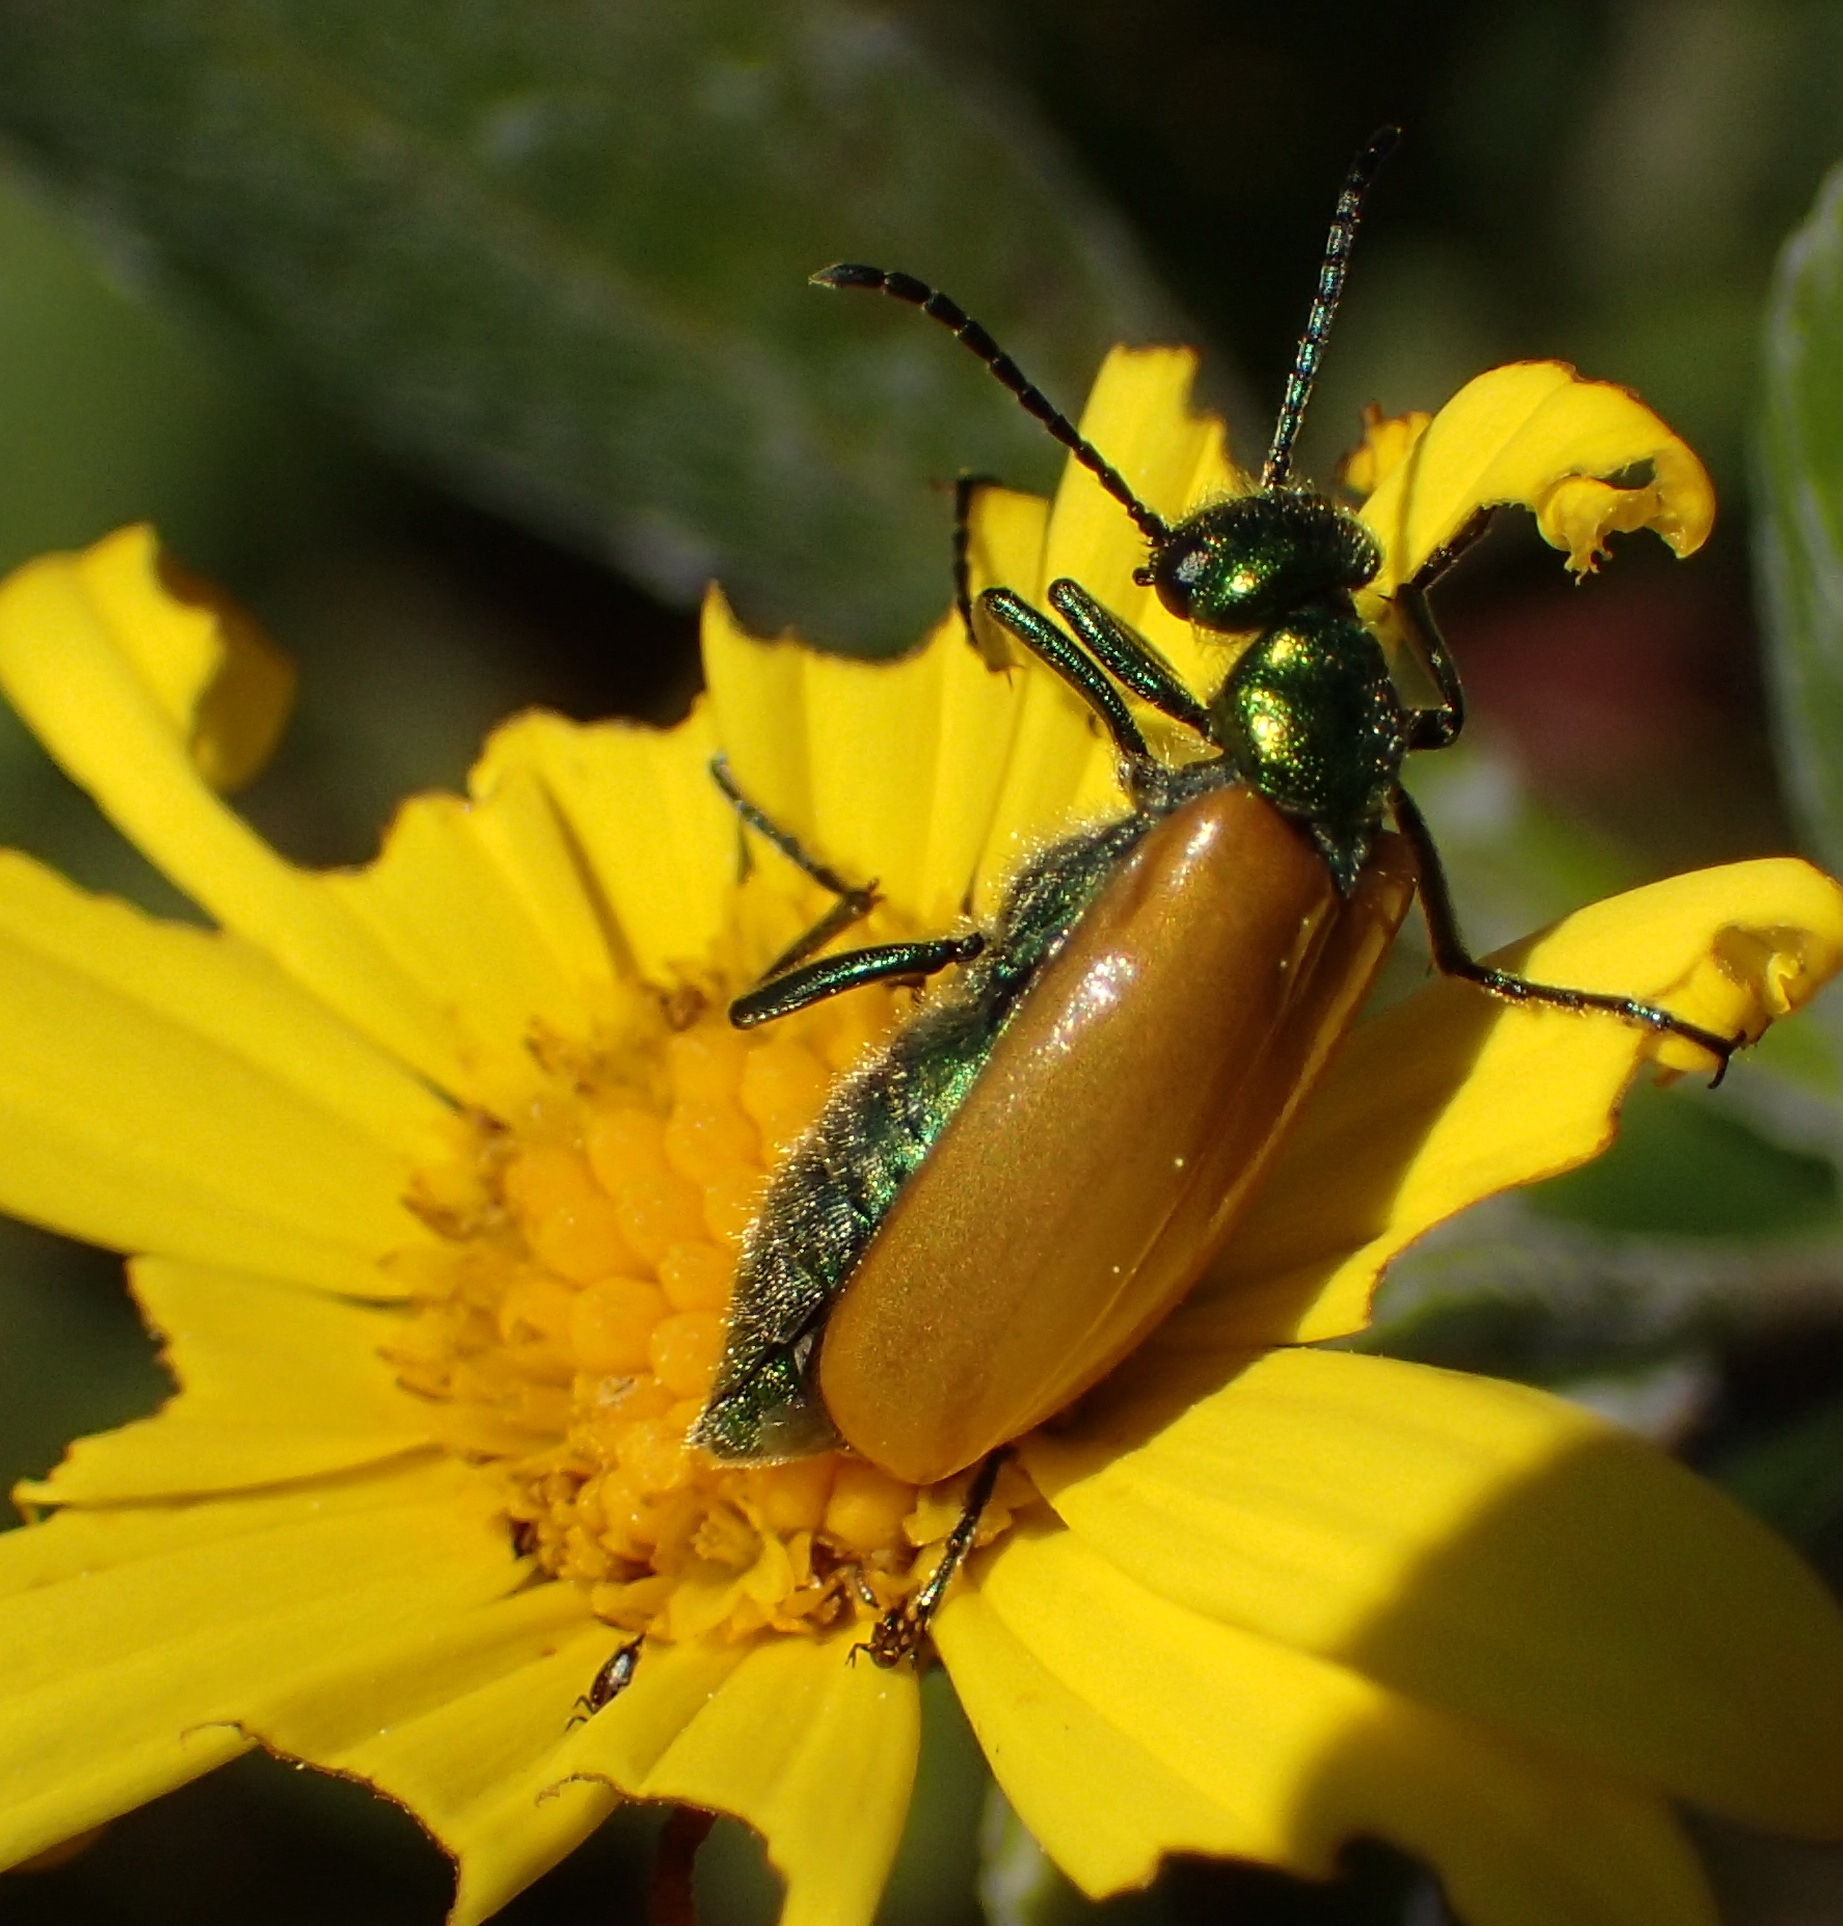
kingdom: Animalia
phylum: Arthropoda
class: Insecta
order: Coleoptera
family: Meloidae
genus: Prolytta
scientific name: Prolytta
